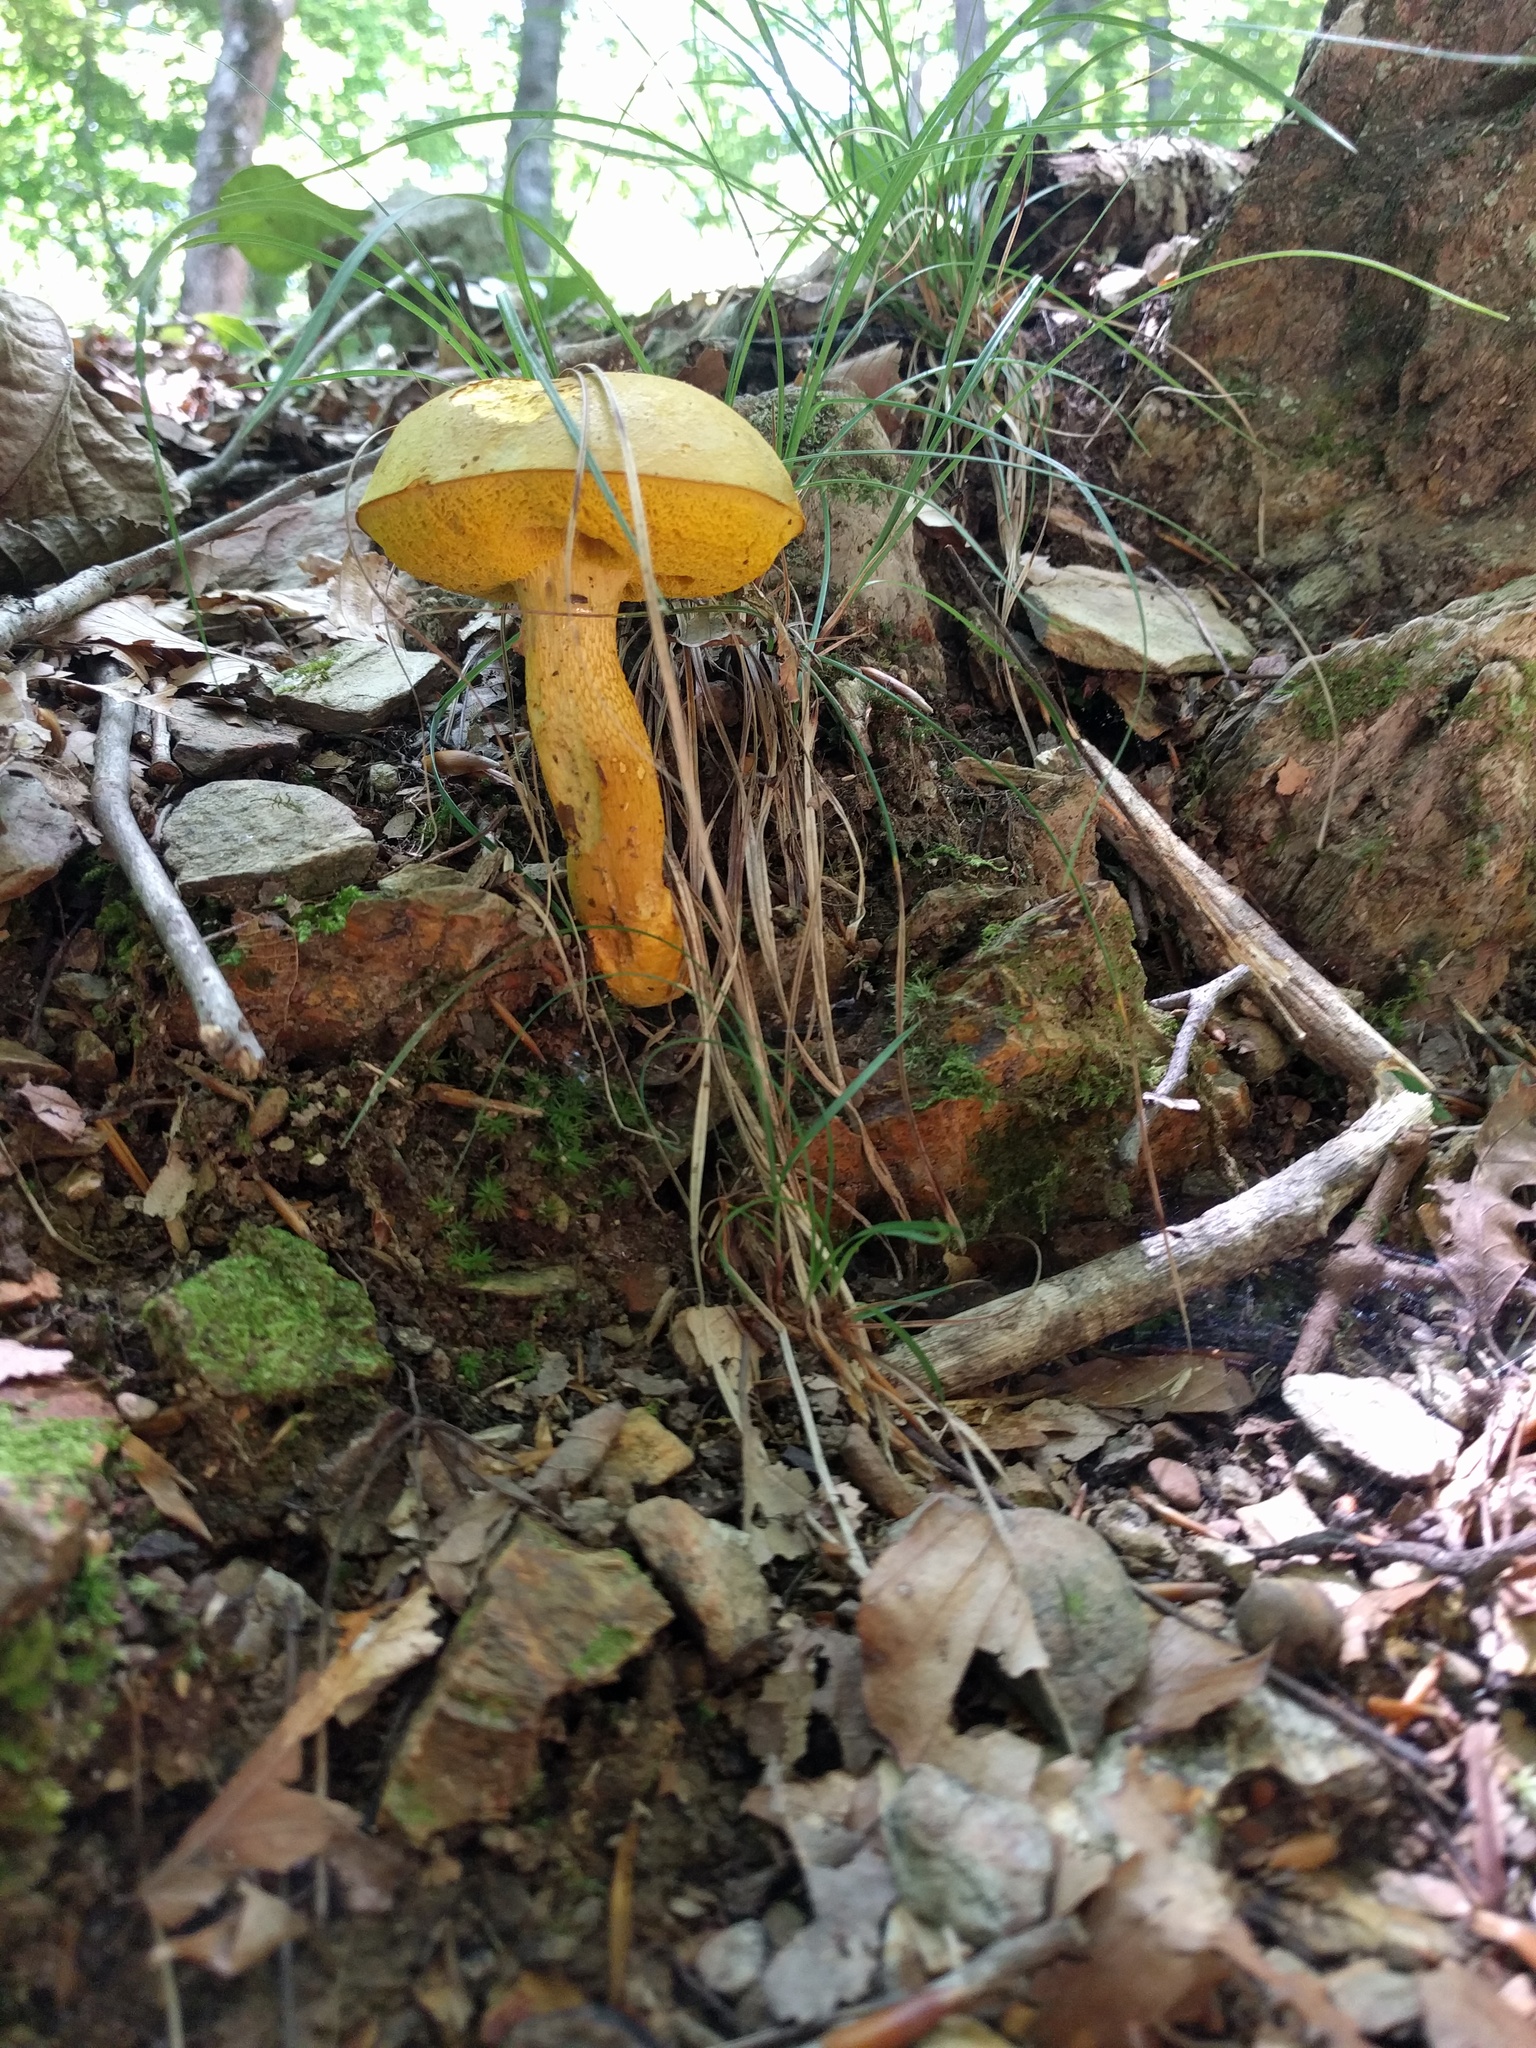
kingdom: Fungi
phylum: Basidiomycota
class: Agaricomycetes
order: Boletales
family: Boletaceae
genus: Retiboletus
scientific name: Retiboletus ornatipes
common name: Ornate-stalked bolete
